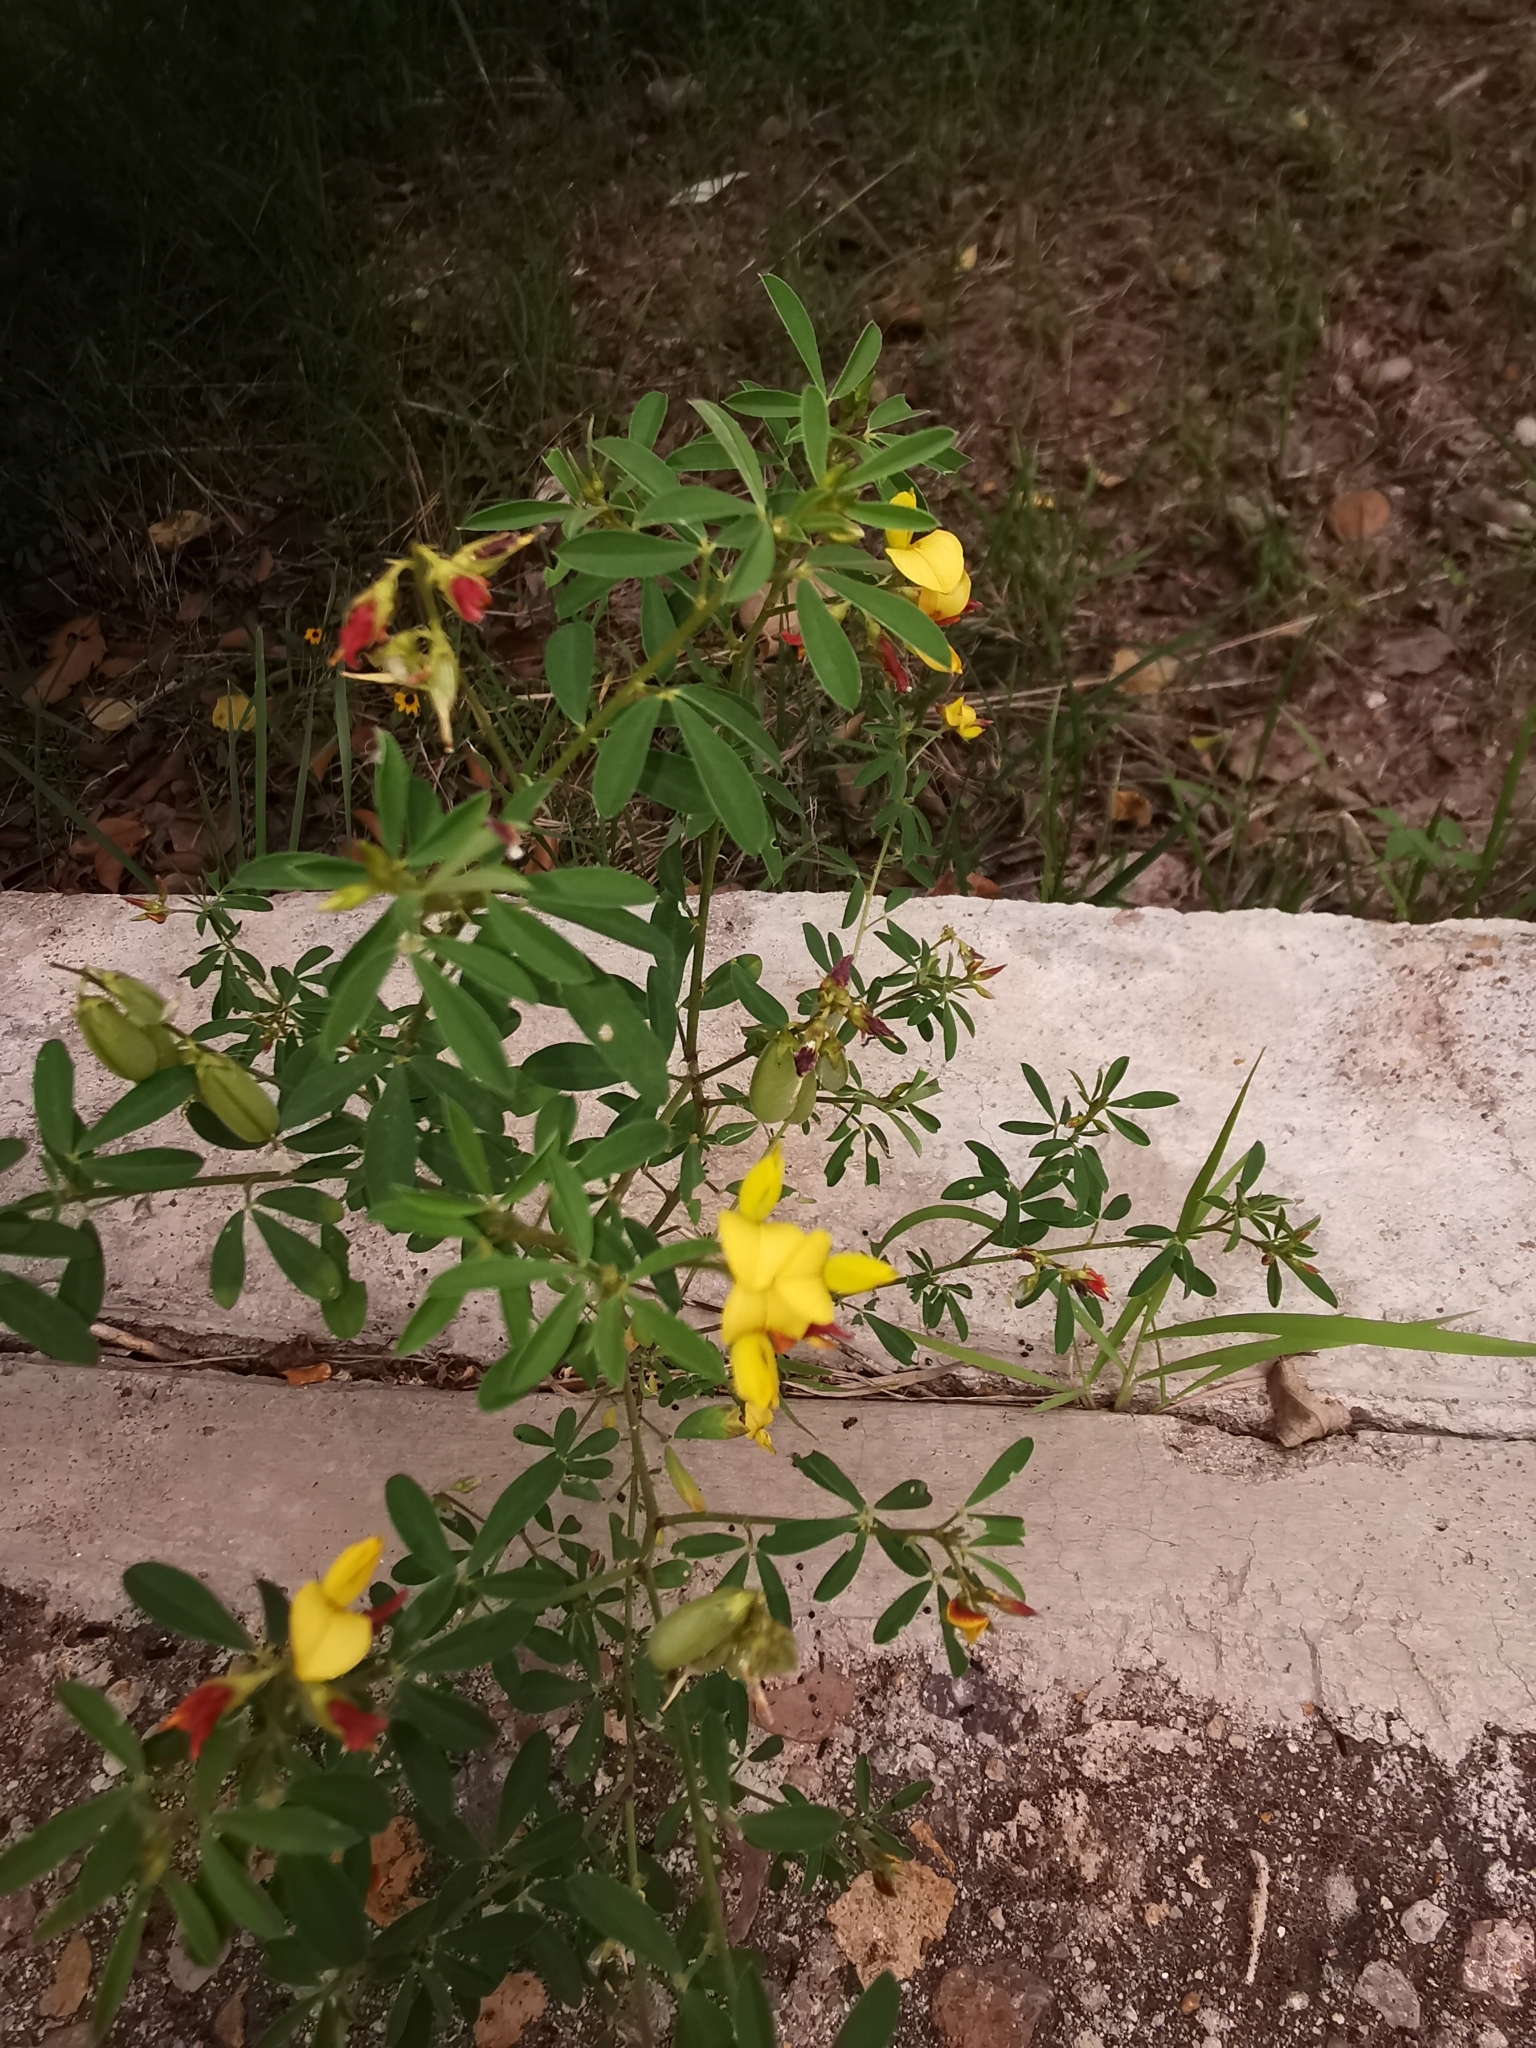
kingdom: Plantae
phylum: Tracheophyta
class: Magnoliopsida
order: Fabales
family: Fabaceae
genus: Crotalaria
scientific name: Crotalaria pumila
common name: Low rattlebox
